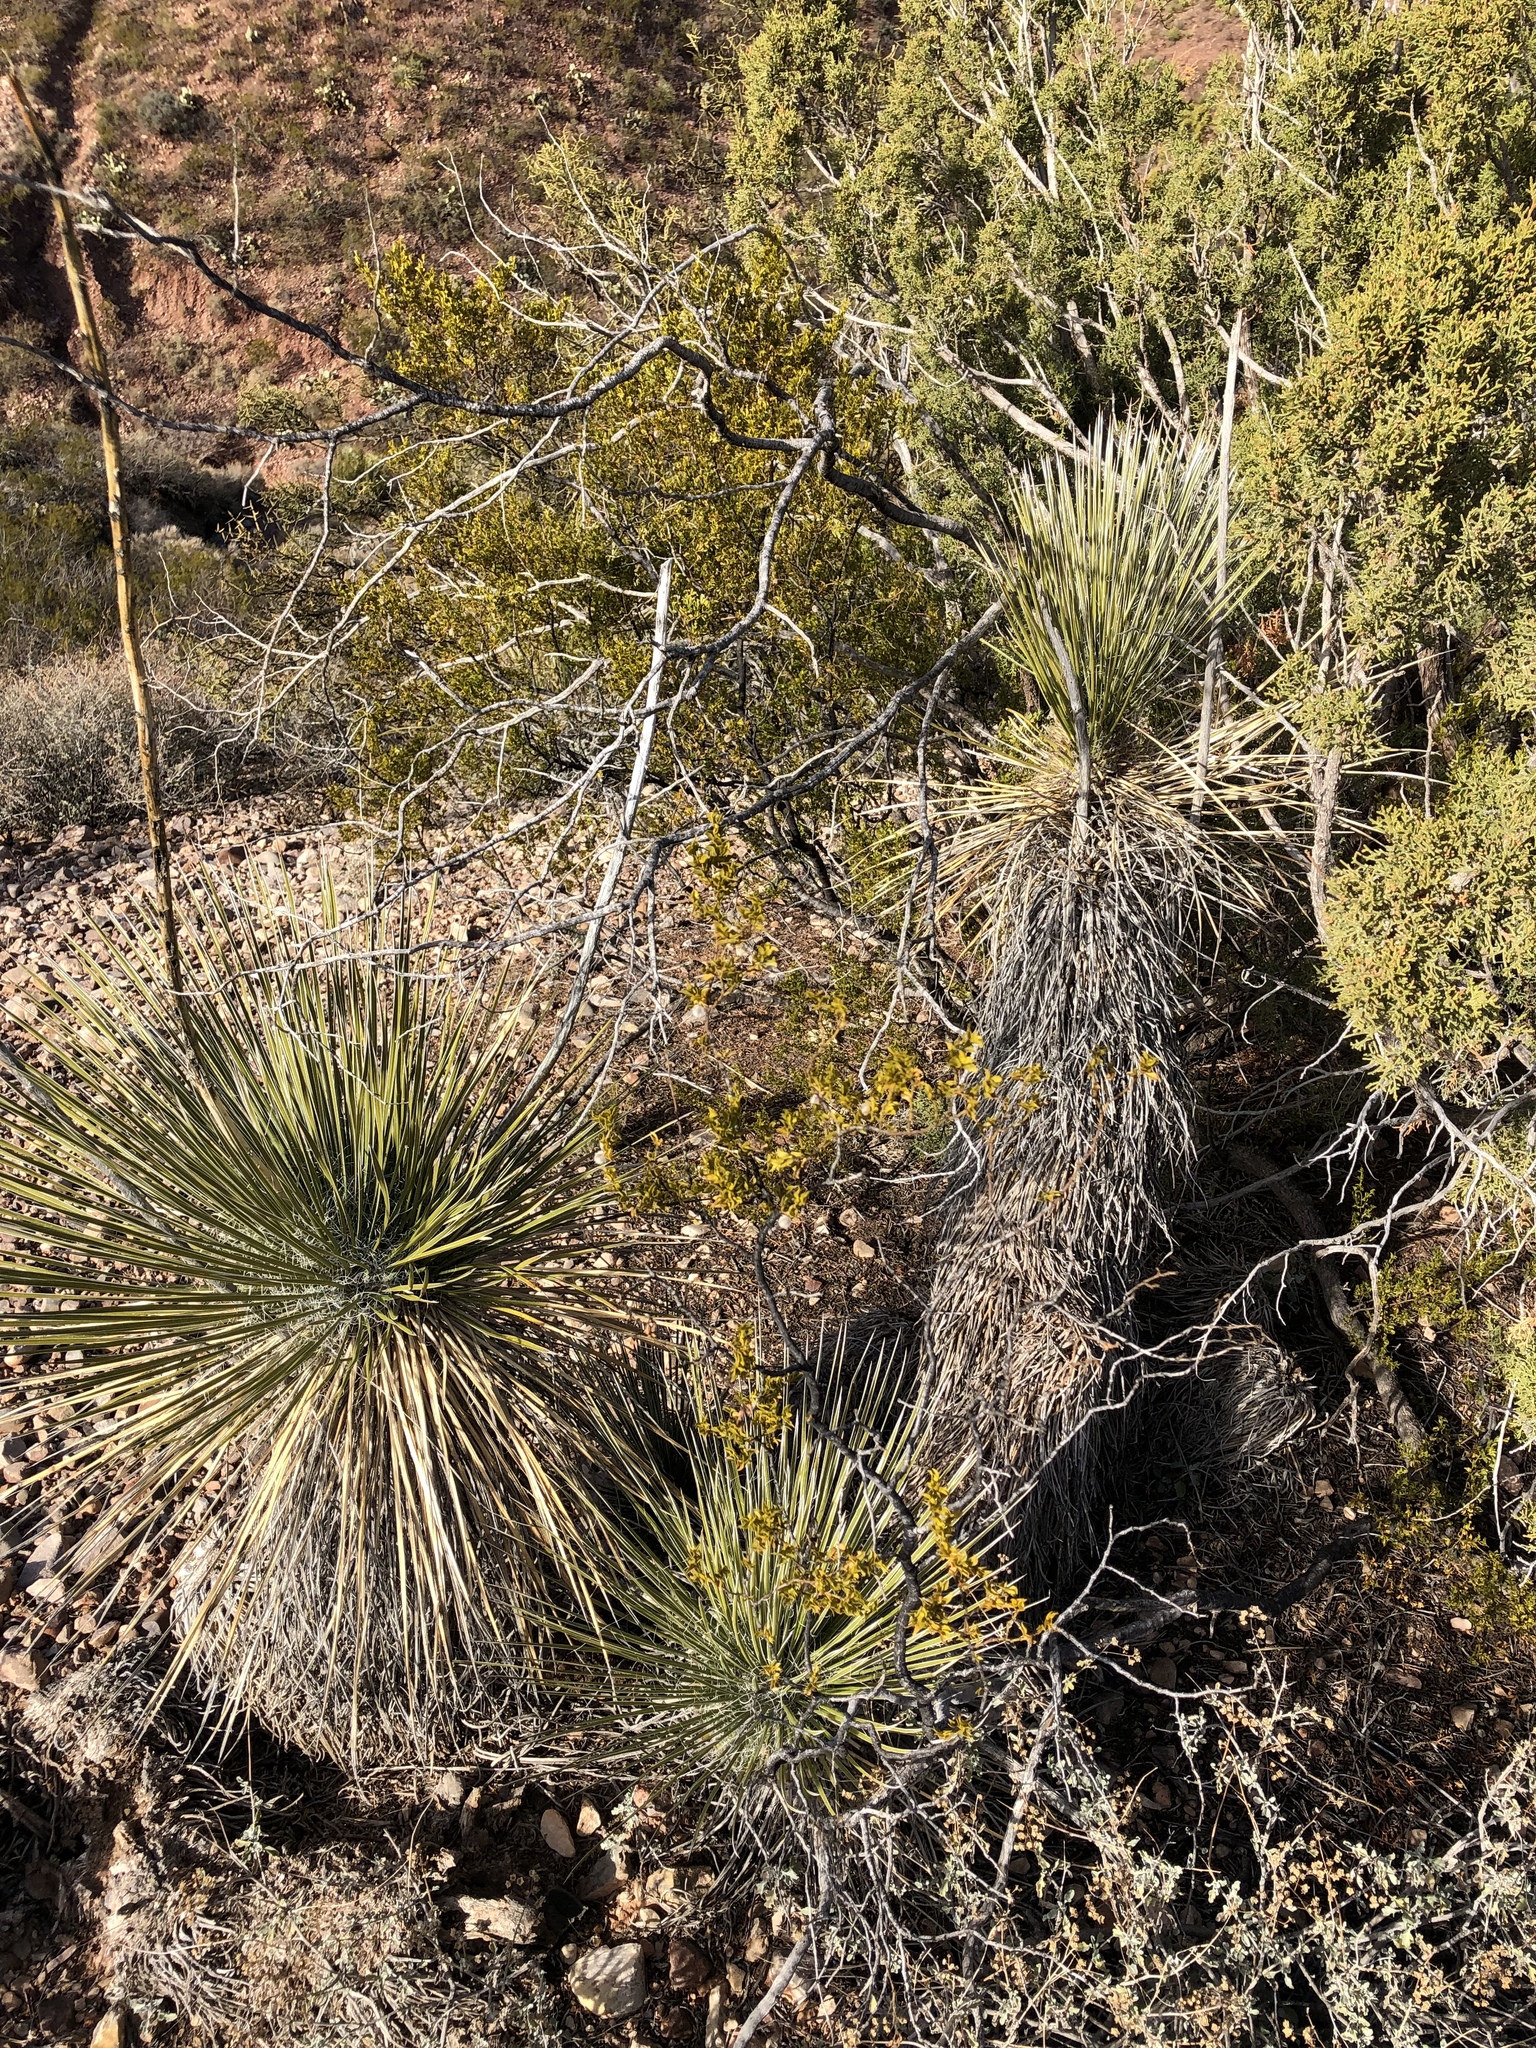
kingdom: Plantae
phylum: Tracheophyta
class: Magnoliopsida
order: Zygophyllales
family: Zygophyllaceae
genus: Larrea
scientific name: Larrea tridentata
